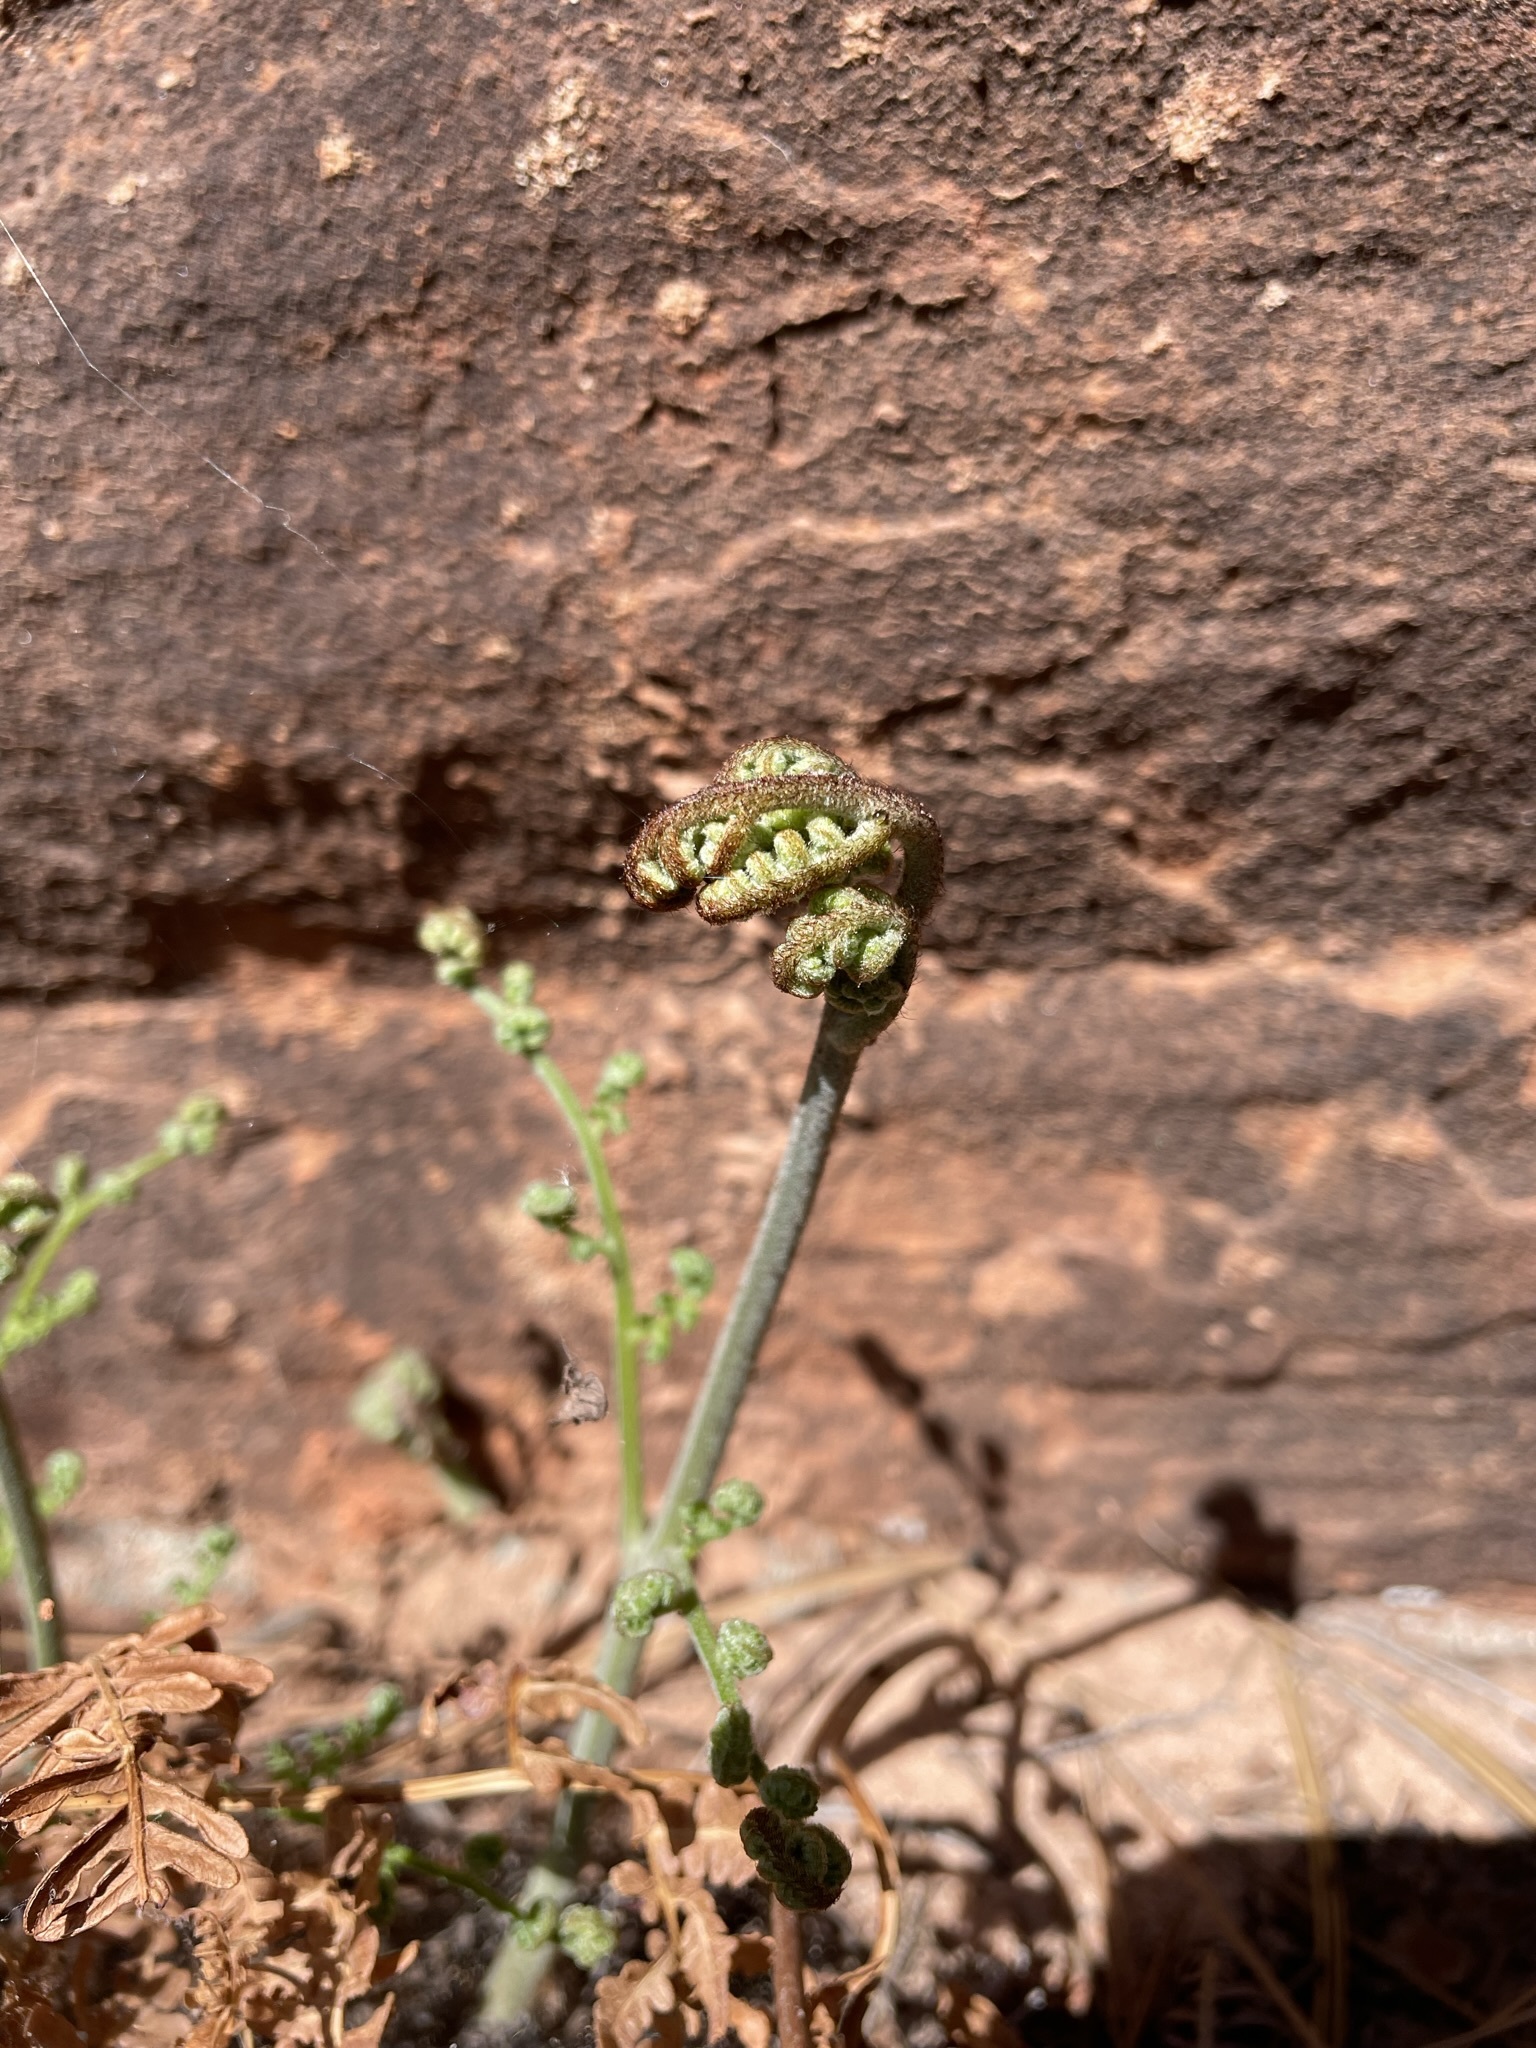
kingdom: Plantae
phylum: Tracheophyta
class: Polypodiopsida
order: Polypodiales
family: Dennstaedtiaceae
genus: Pteridium
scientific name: Pteridium aquilinum
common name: Bracken
